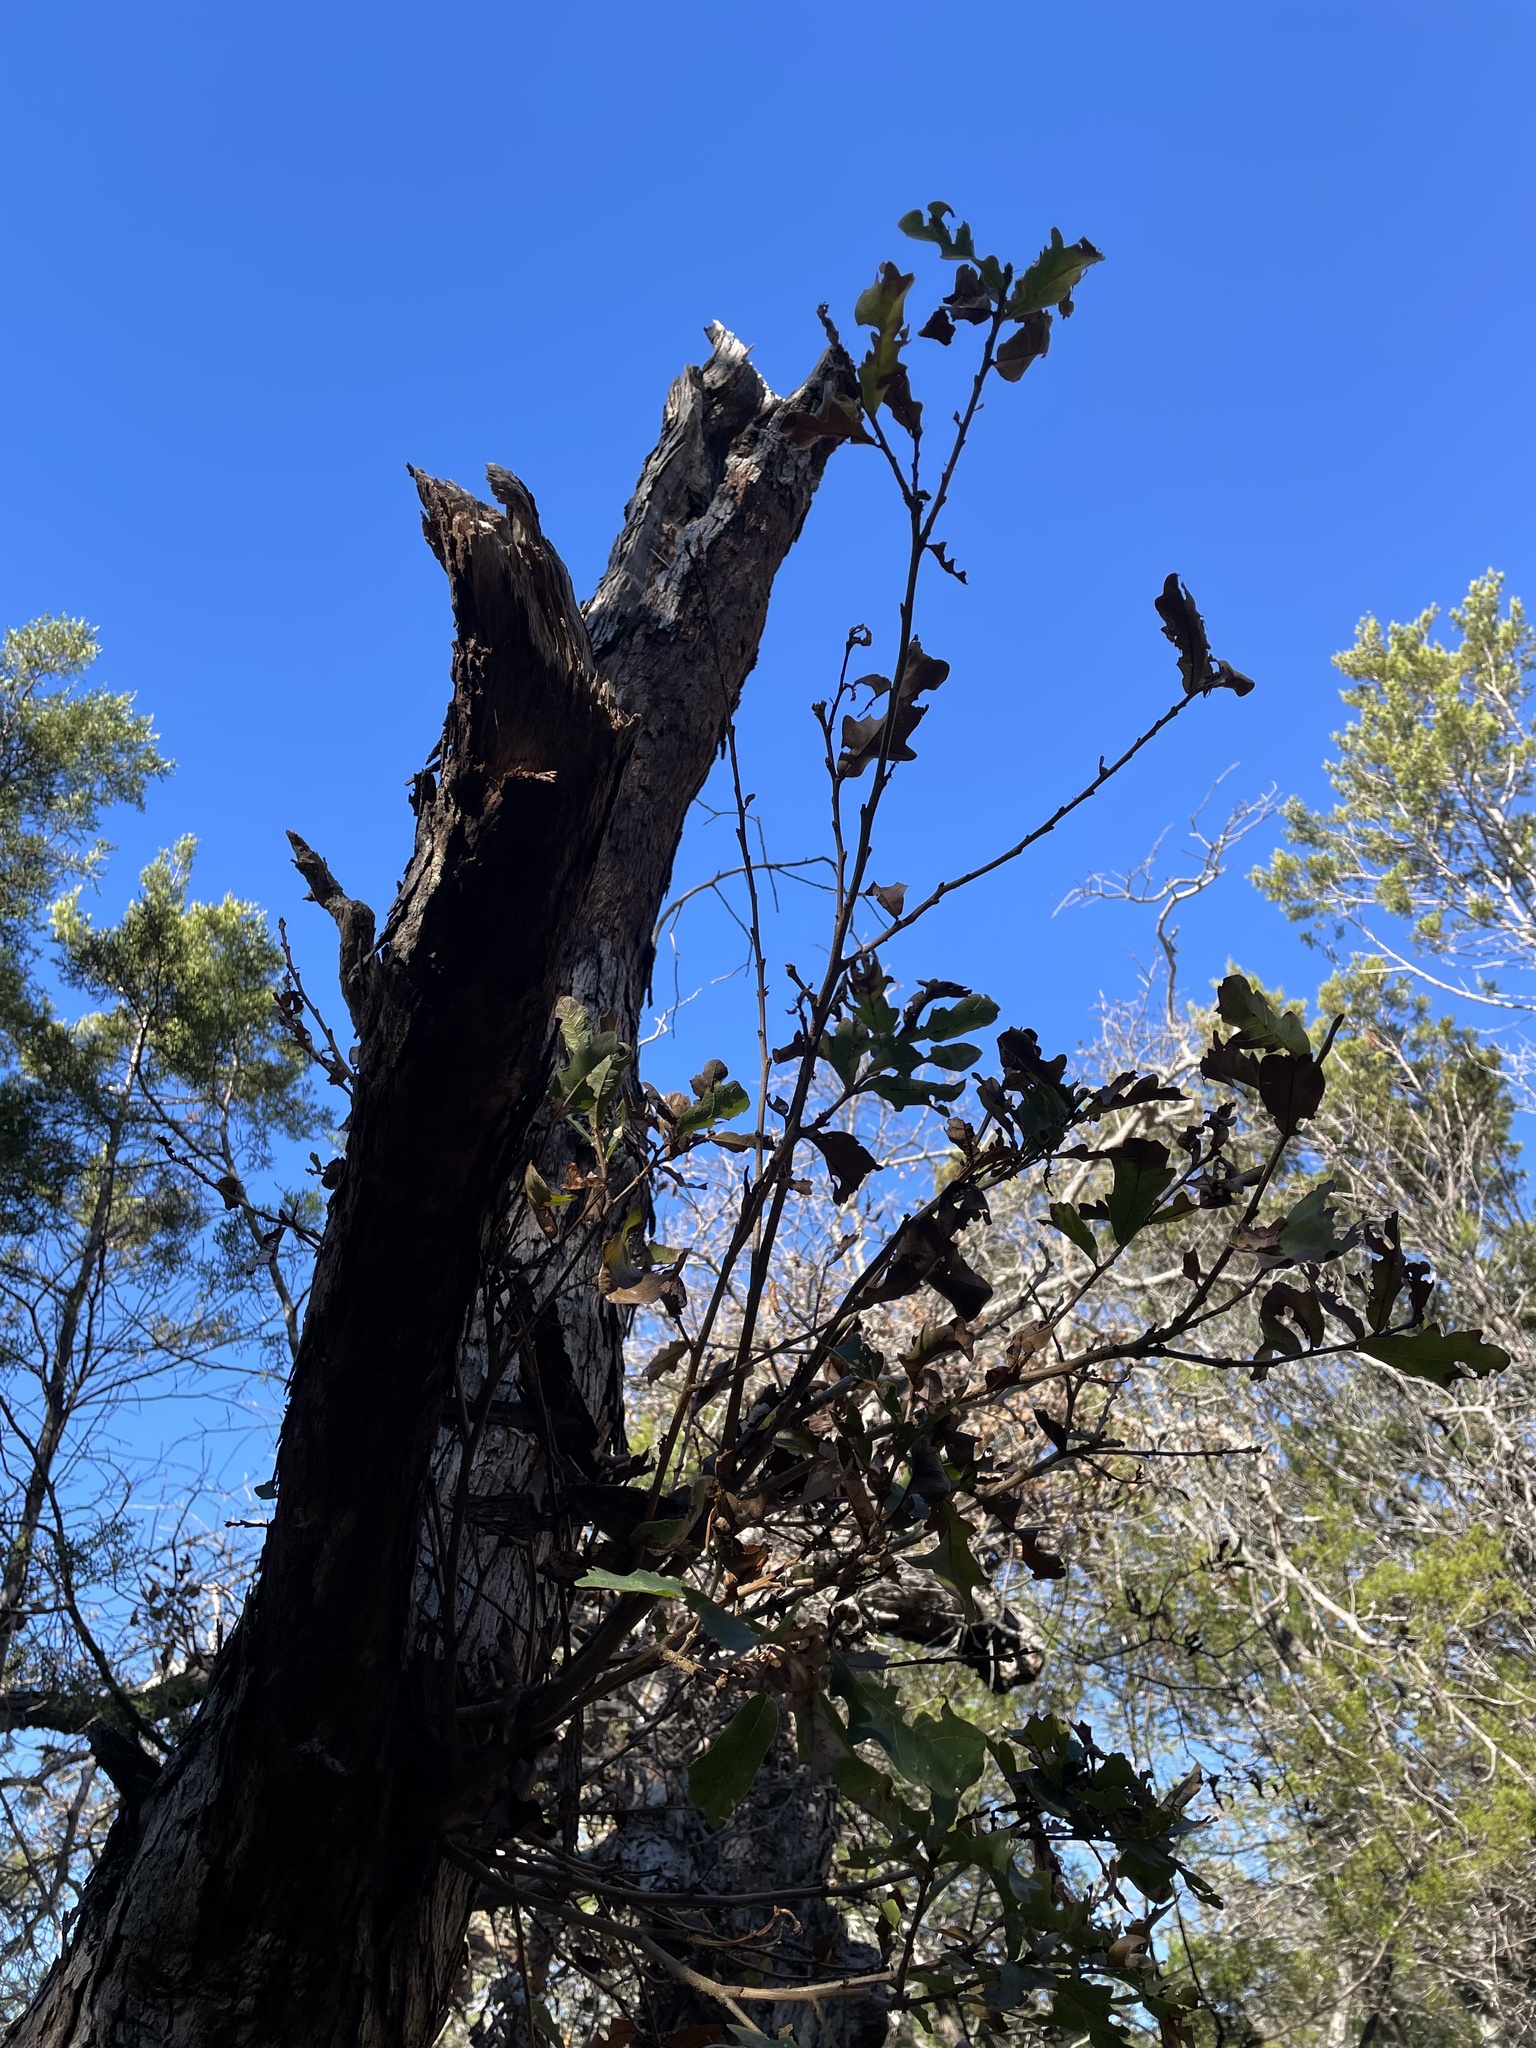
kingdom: Plantae
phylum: Tracheophyta
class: Magnoliopsida
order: Fagales
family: Fagaceae
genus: Quercus
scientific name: Quercus sinuata
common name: Durand oak
